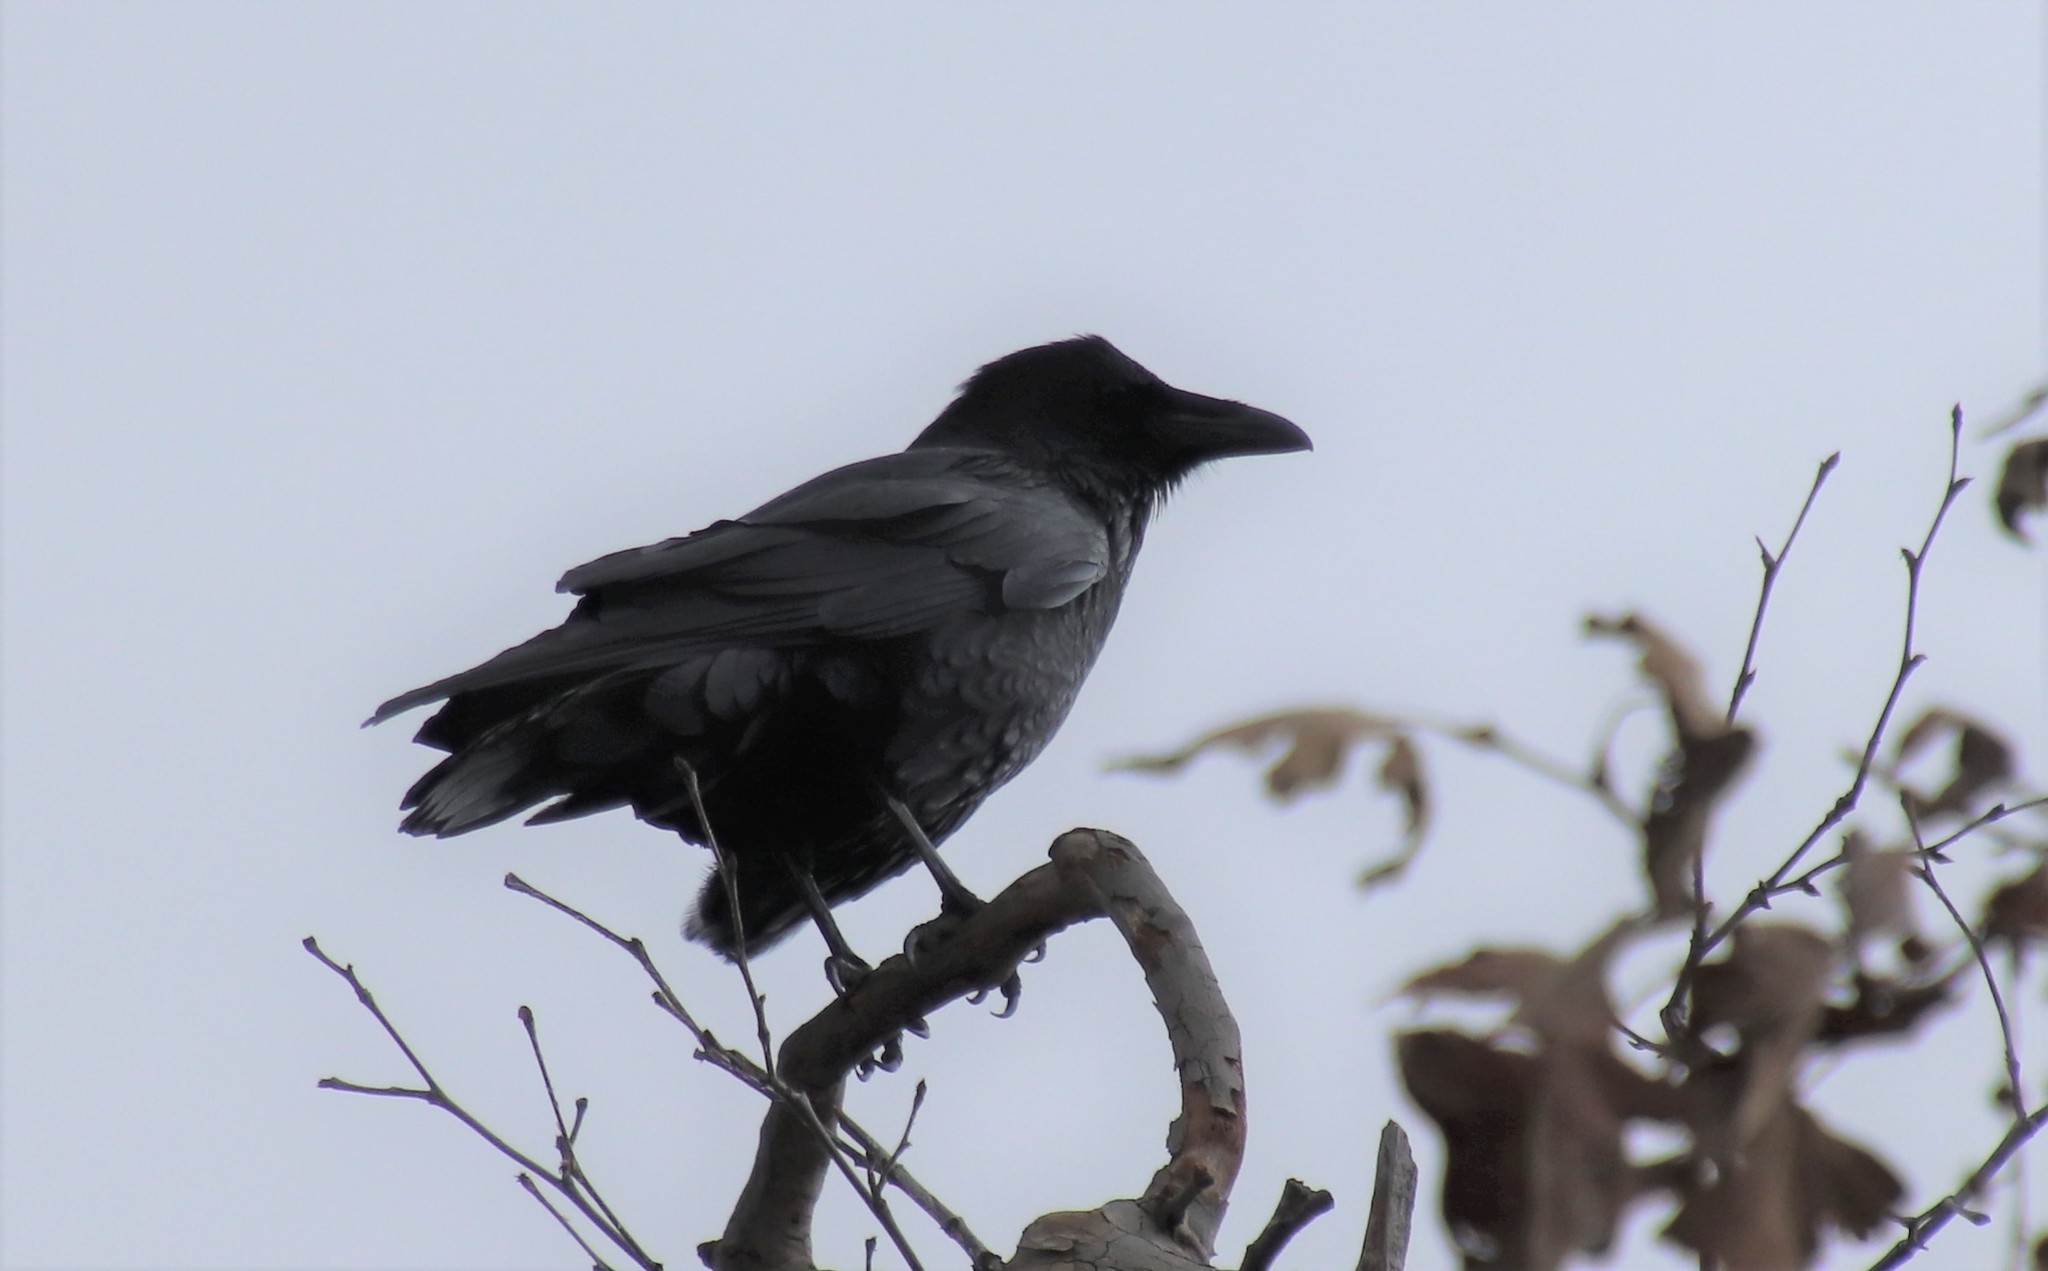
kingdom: Animalia
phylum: Chordata
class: Aves
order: Passeriformes
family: Corvidae
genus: Corvus
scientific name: Corvus corax
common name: Common raven
